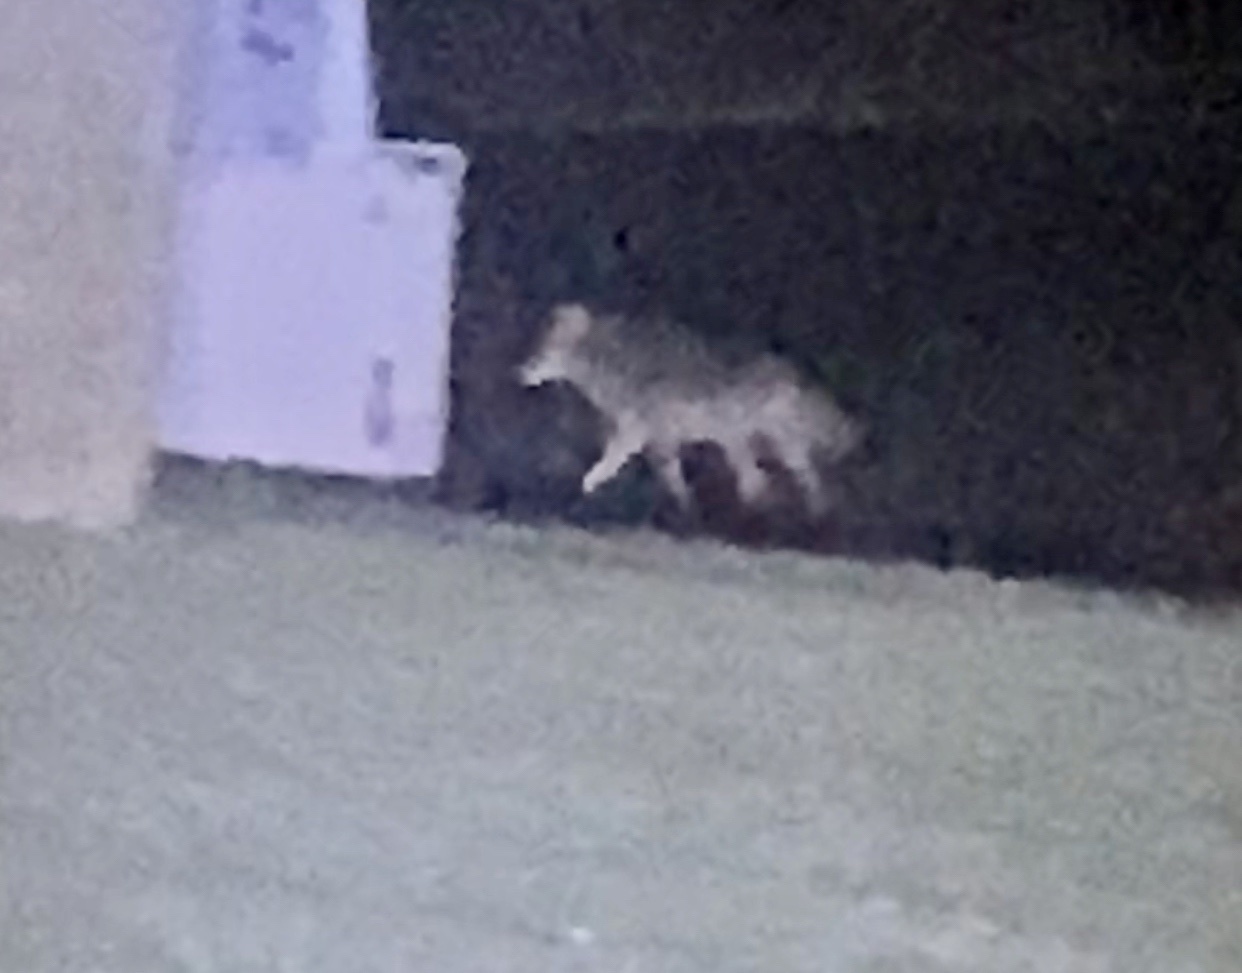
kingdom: Animalia
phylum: Chordata
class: Mammalia
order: Carnivora
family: Canidae
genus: Canis
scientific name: Canis latrans
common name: Coyote
